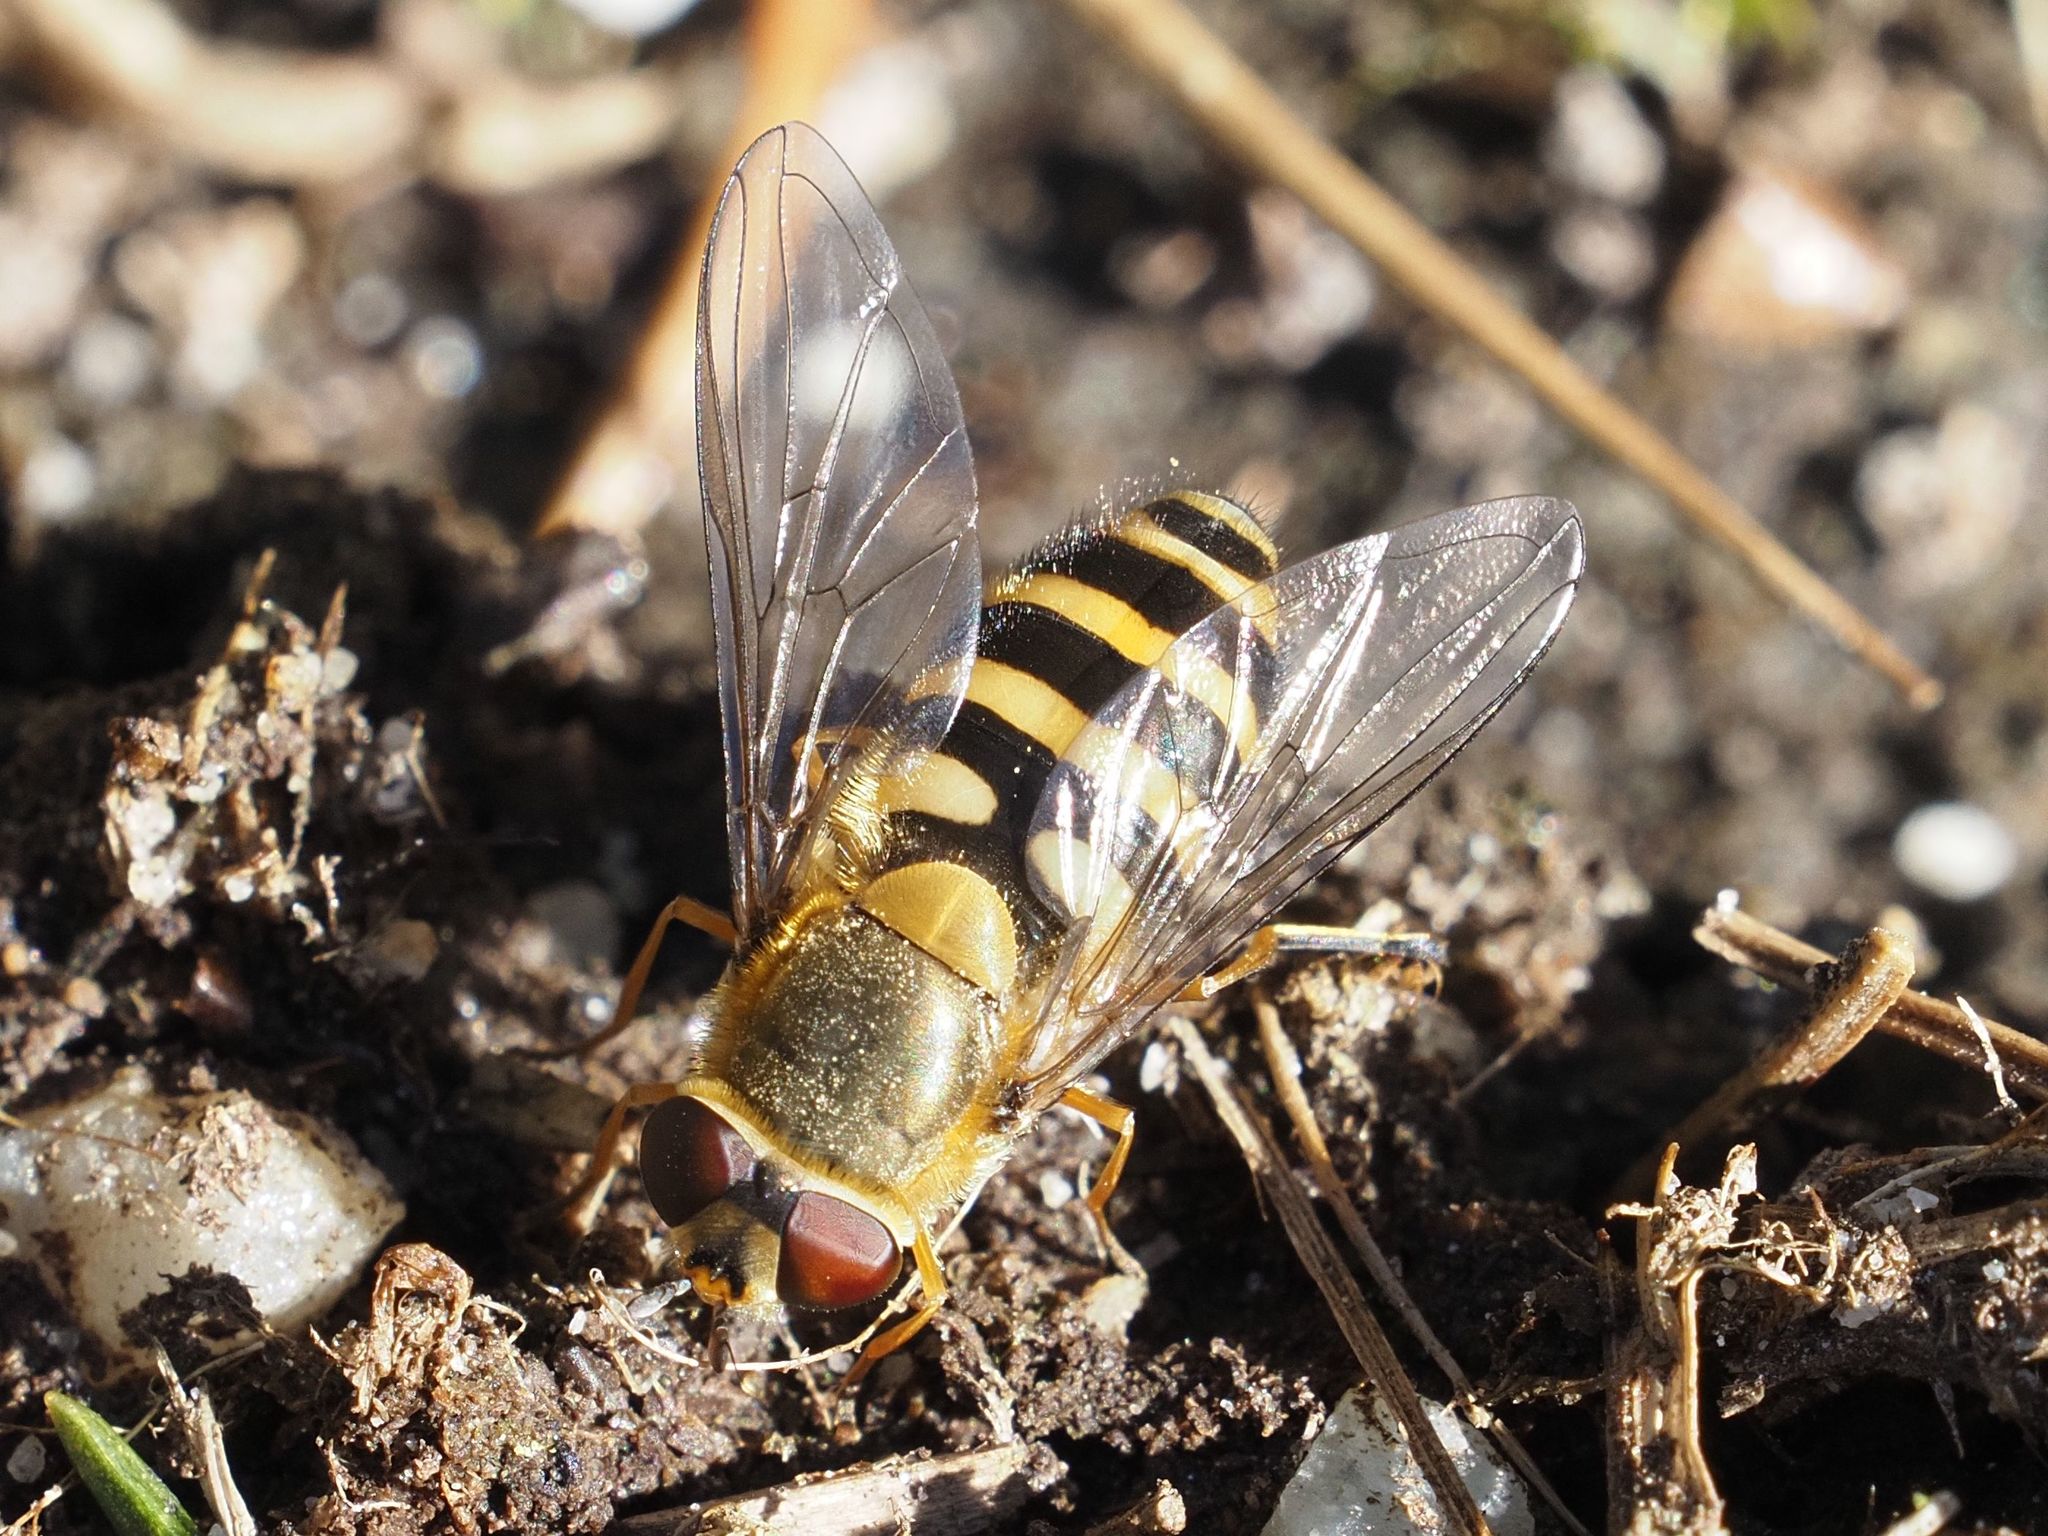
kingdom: Animalia
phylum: Arthropoda
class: Insecta
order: Diptera
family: Syrphidae
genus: Syrphus
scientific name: Syrphus torvus
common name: Hairy-eyed flower fly
